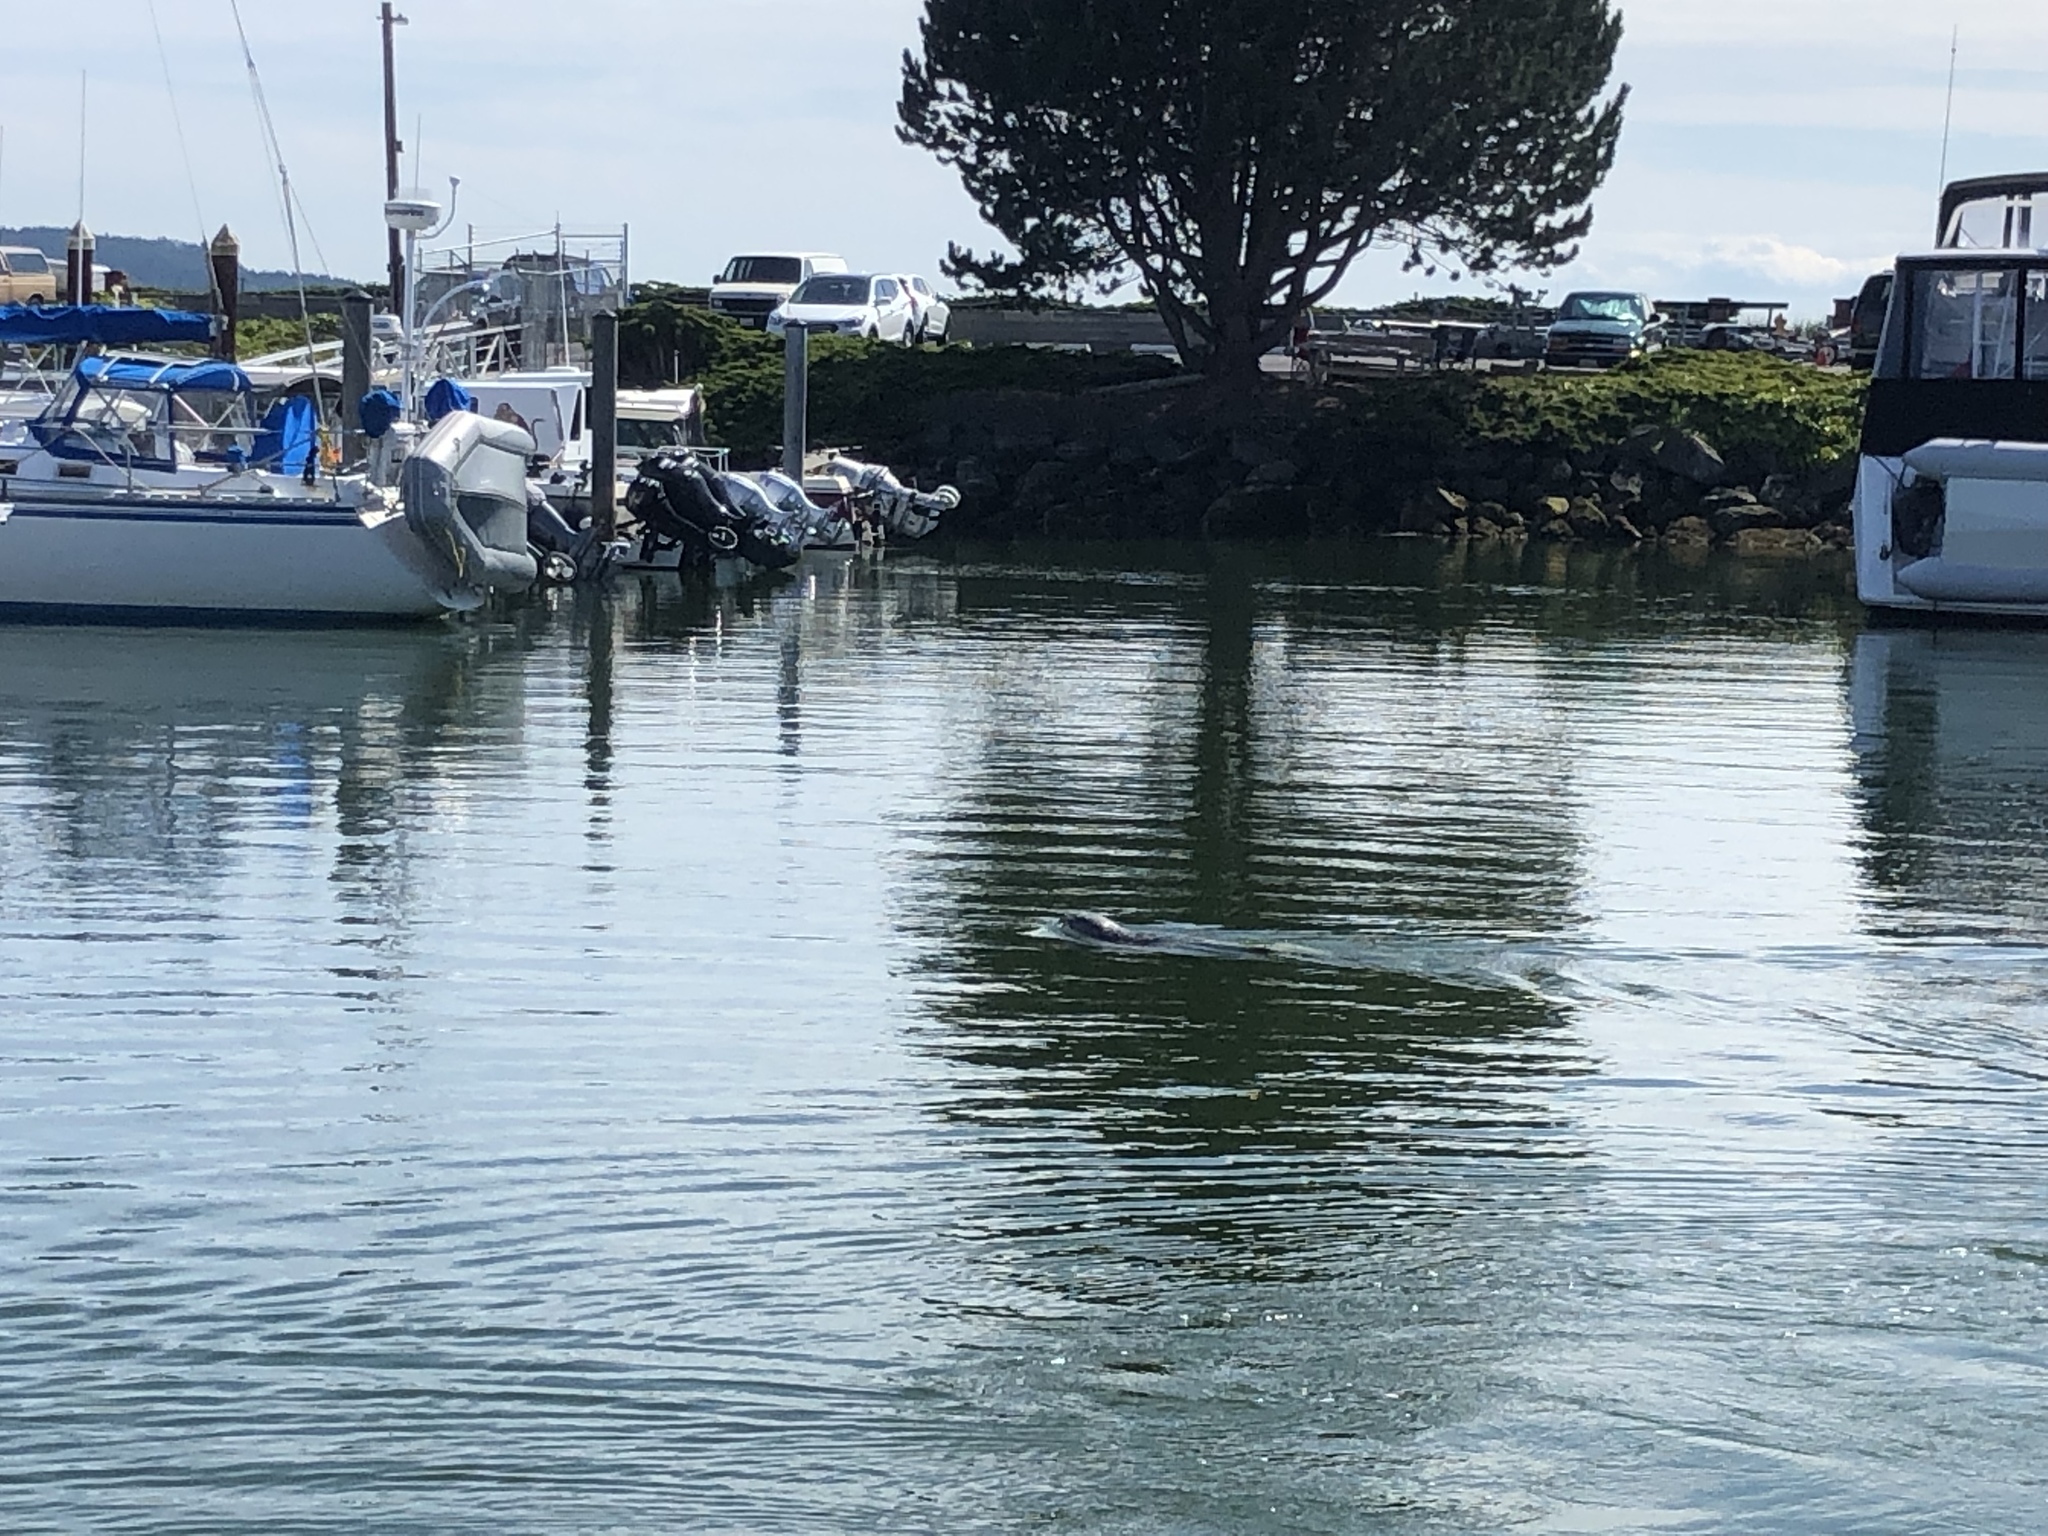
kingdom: Animalia
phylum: Chordata
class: Mammalia
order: Carnivora
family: Phocidae
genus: Phoca
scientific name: Phoca vitulina
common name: Harbor seal
